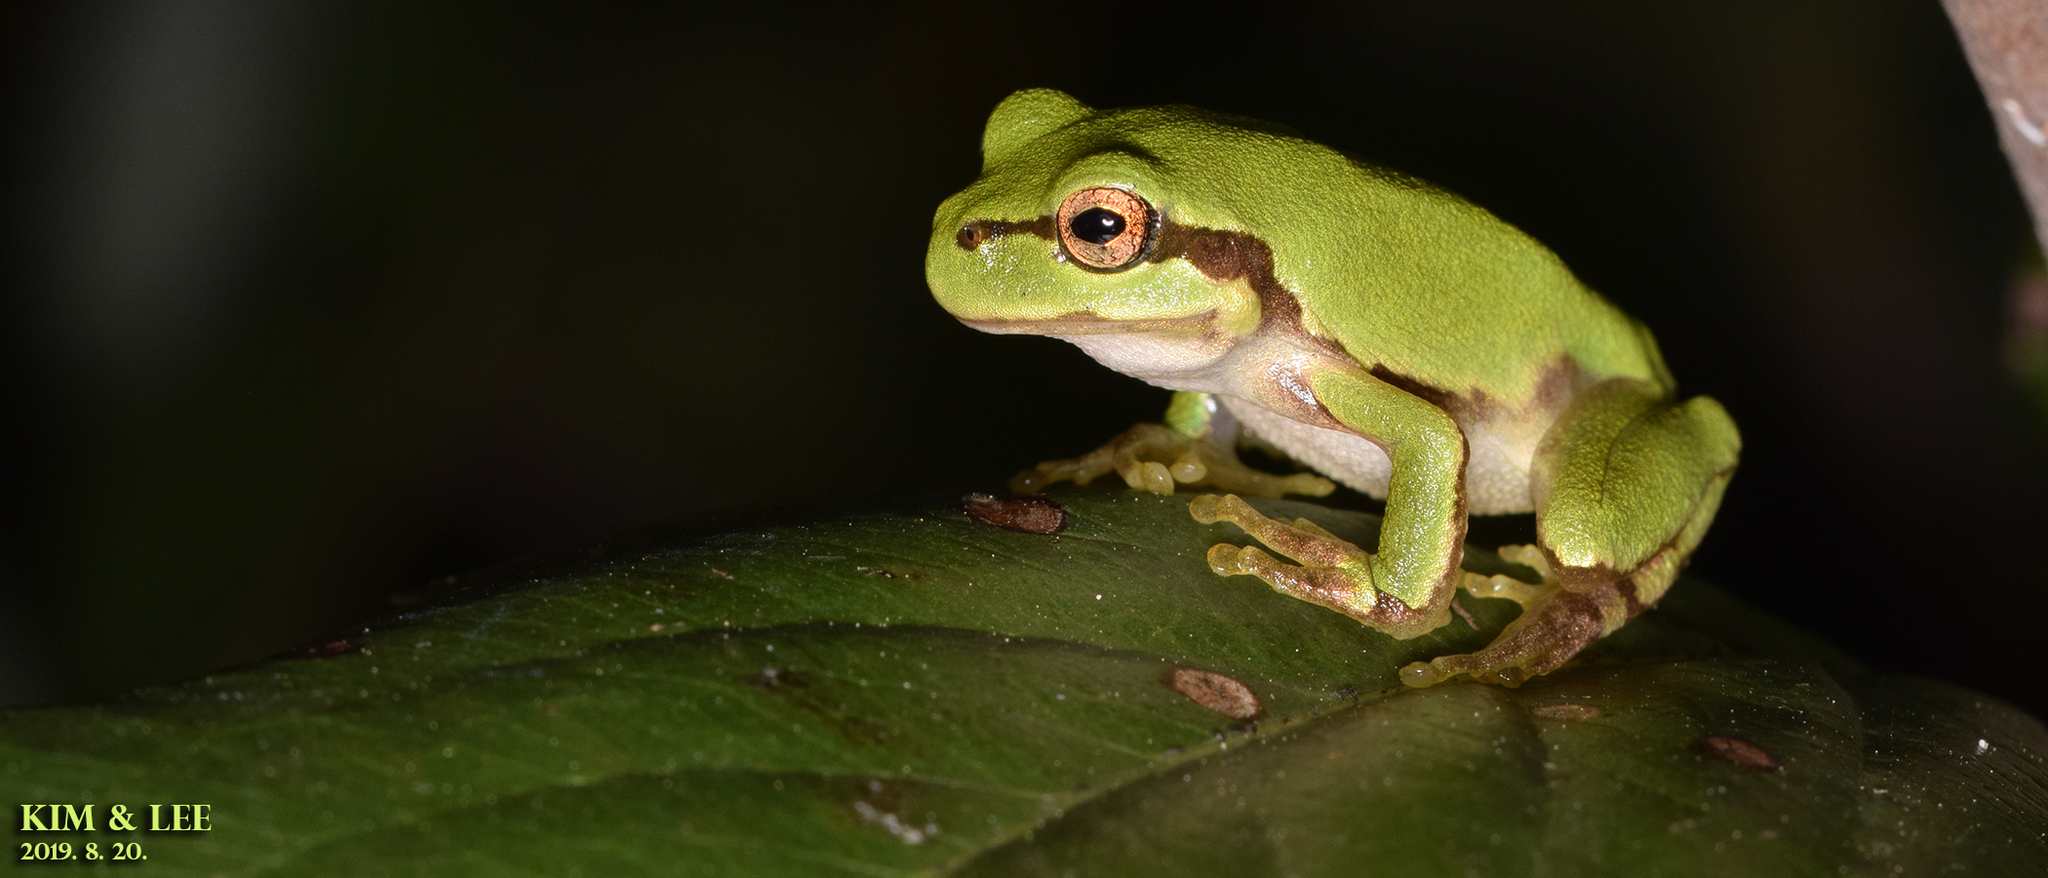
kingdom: Animalia
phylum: Chordata
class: Amphibia
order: Anura
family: Hylidae
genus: Dryophytes
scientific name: Dryophytes japonicus
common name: Japanese treefrog
